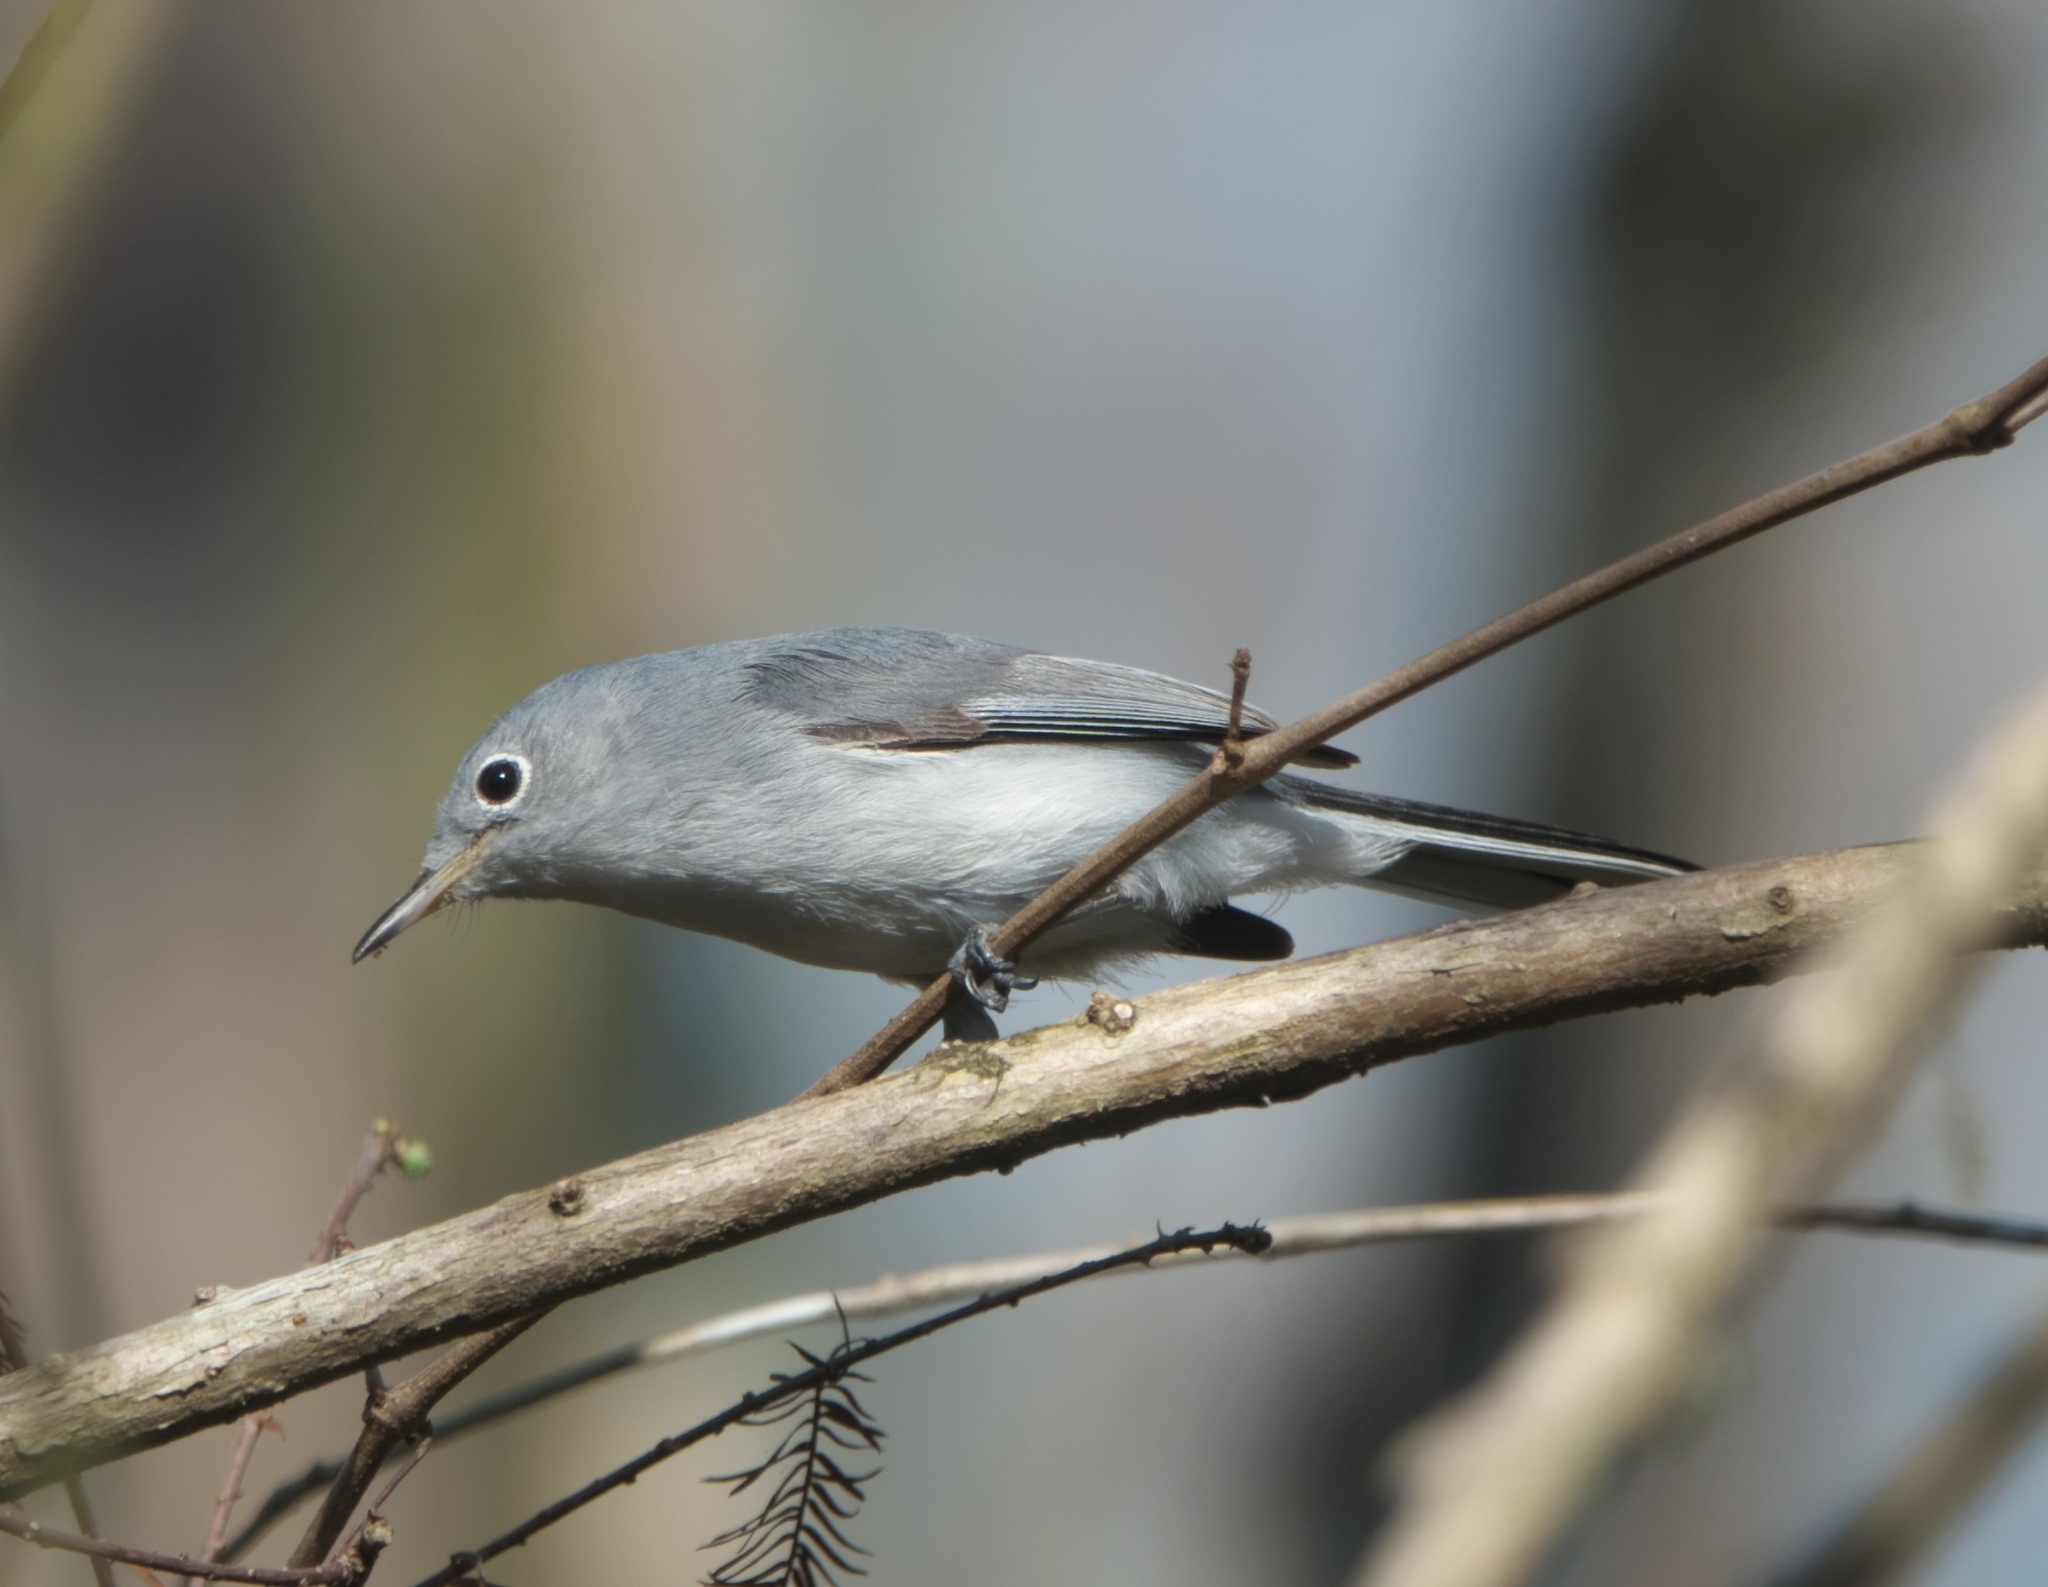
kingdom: Animalia
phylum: Chordata
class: Aves
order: Passeriformes
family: Polioptilidae
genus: Polioptila
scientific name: Polioptila caerulea
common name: Blue-gray gnatcatcher
